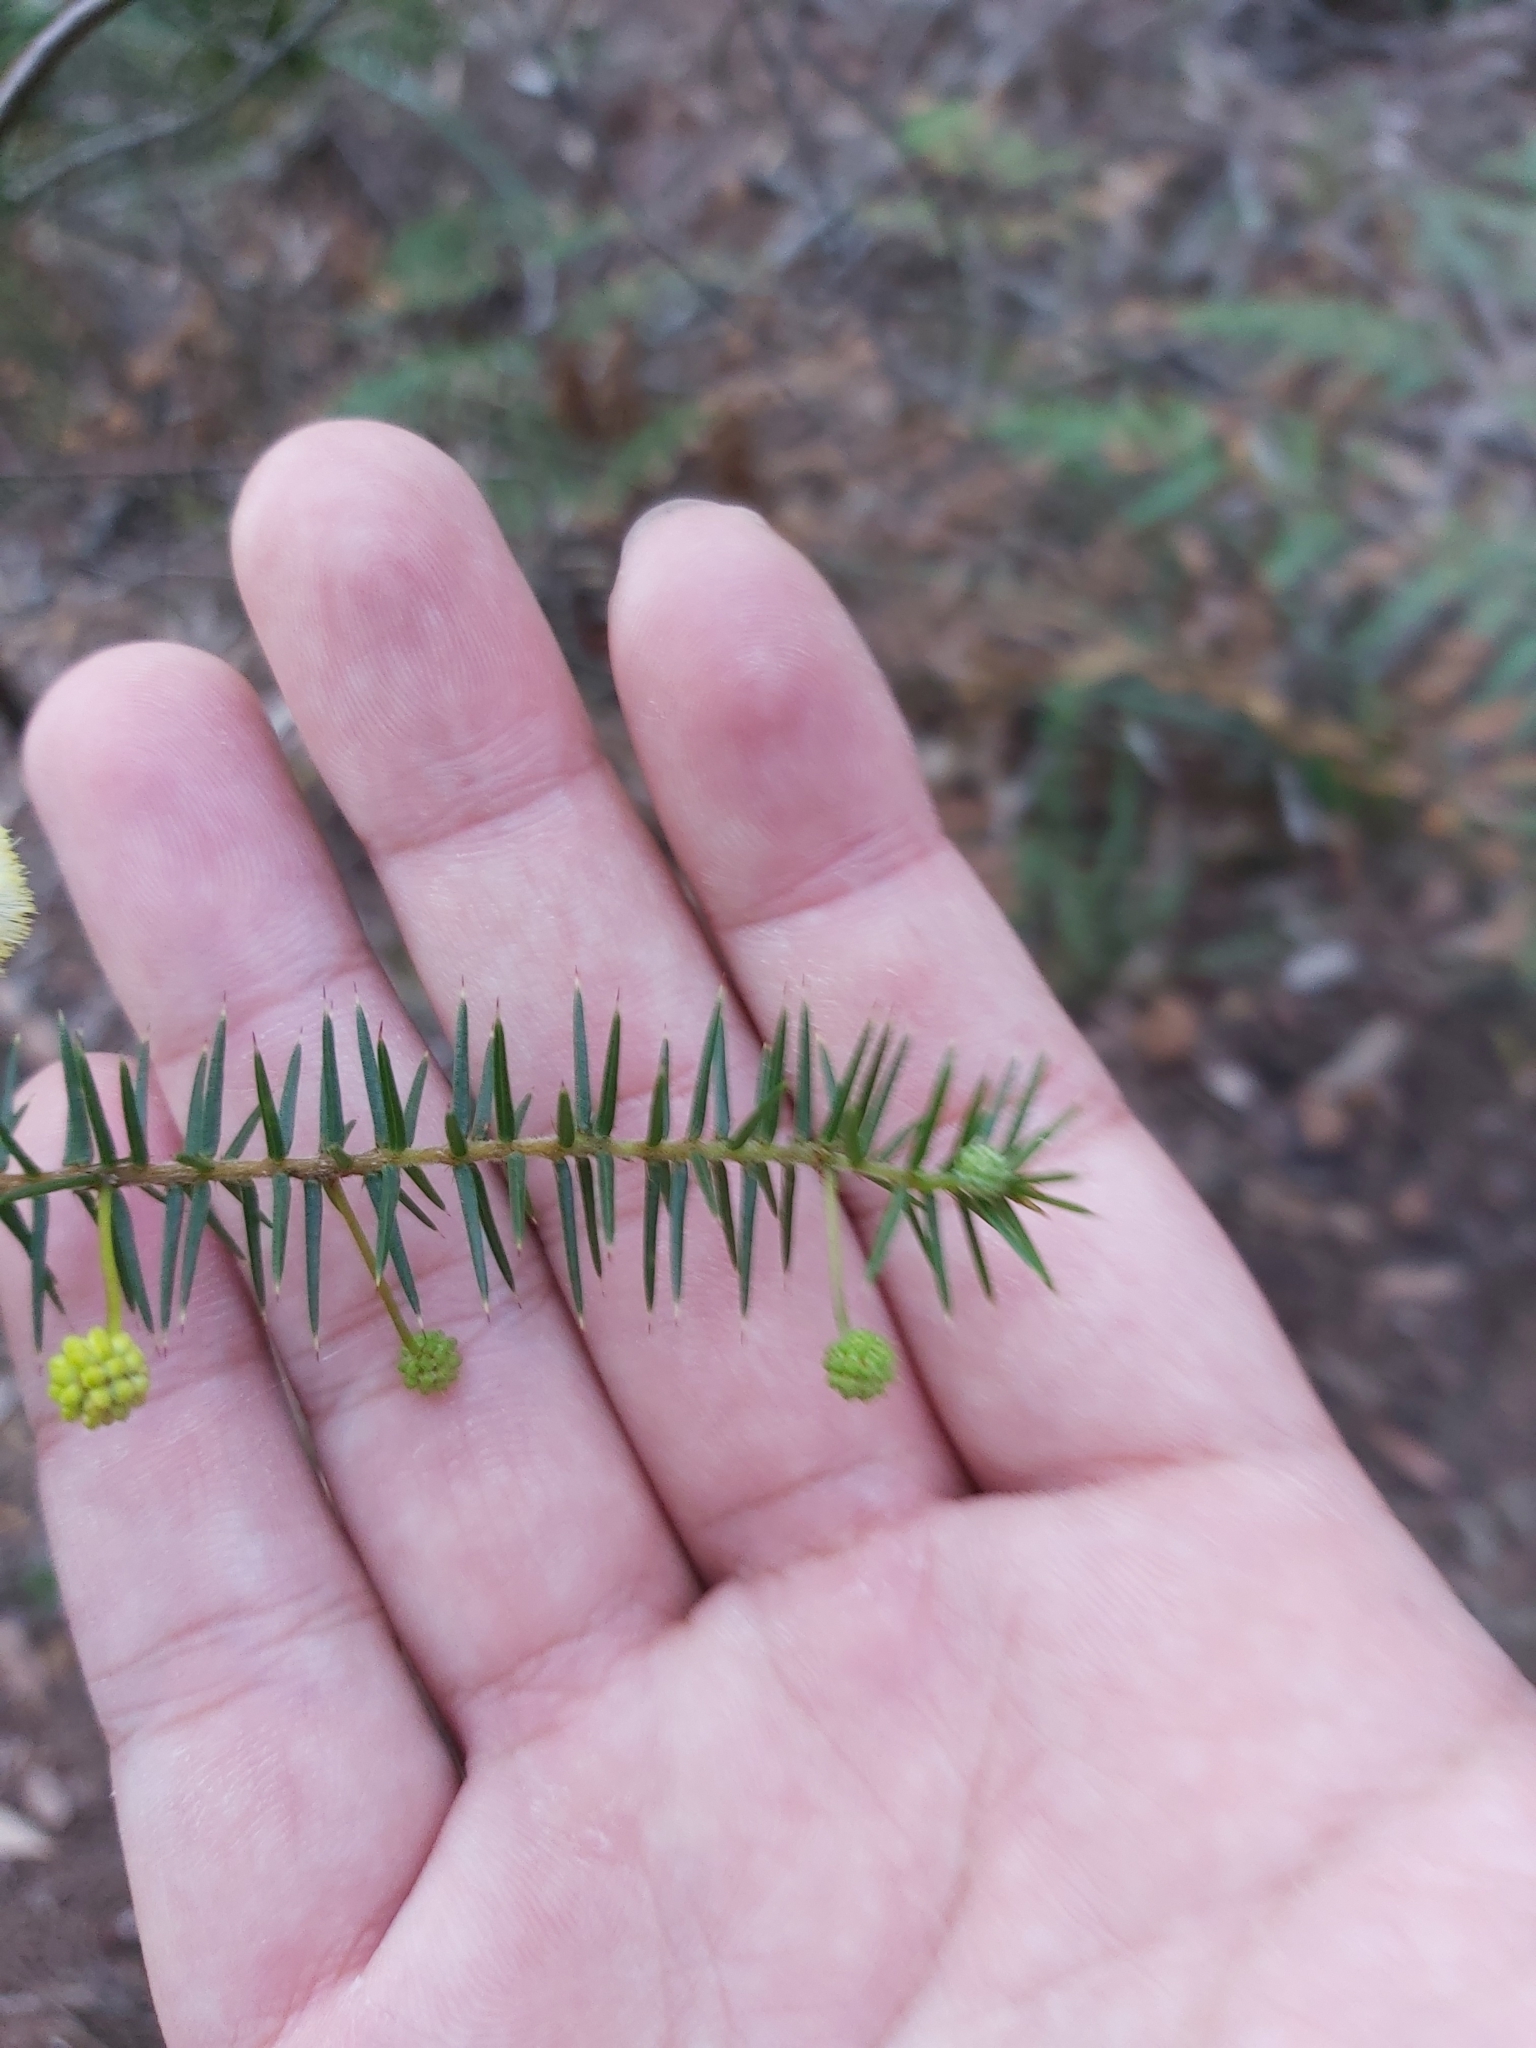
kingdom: Plantae
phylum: Tracheophyta
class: Magnoliopsida
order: Fabales
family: Fabaceae
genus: Acacia
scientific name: Acacia ulicifolia
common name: Juniper wattle
